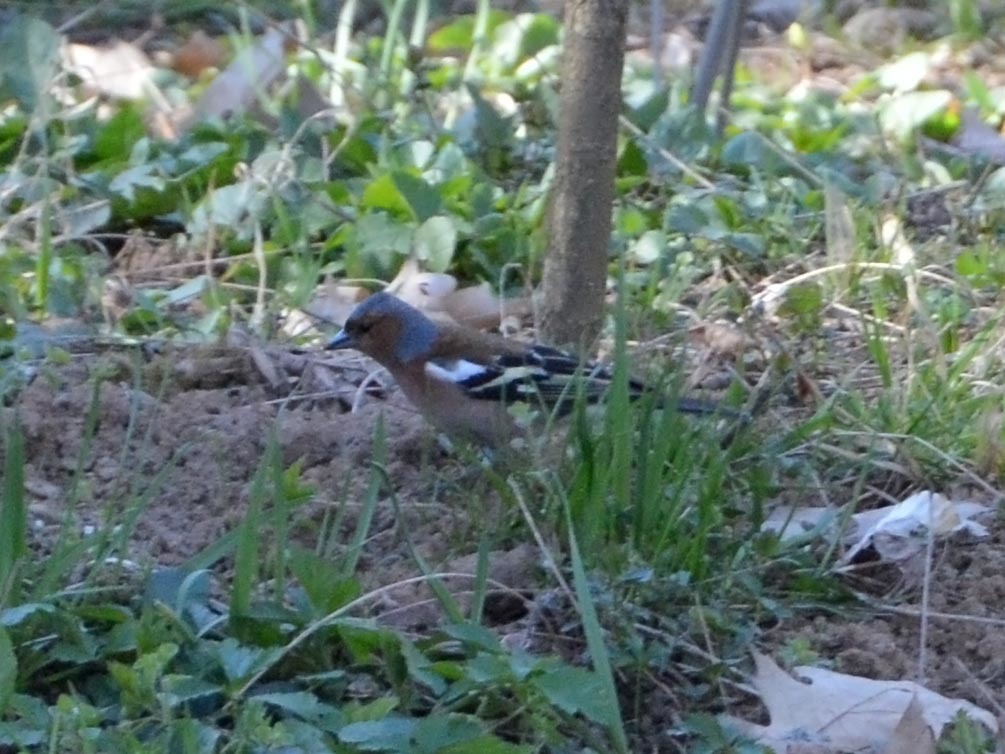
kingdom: Animalia
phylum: Chordata
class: Aves
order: Passeriformes
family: Fringillidae
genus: Fringilla
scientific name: Fringilla coelebs
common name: Common chaffinch
